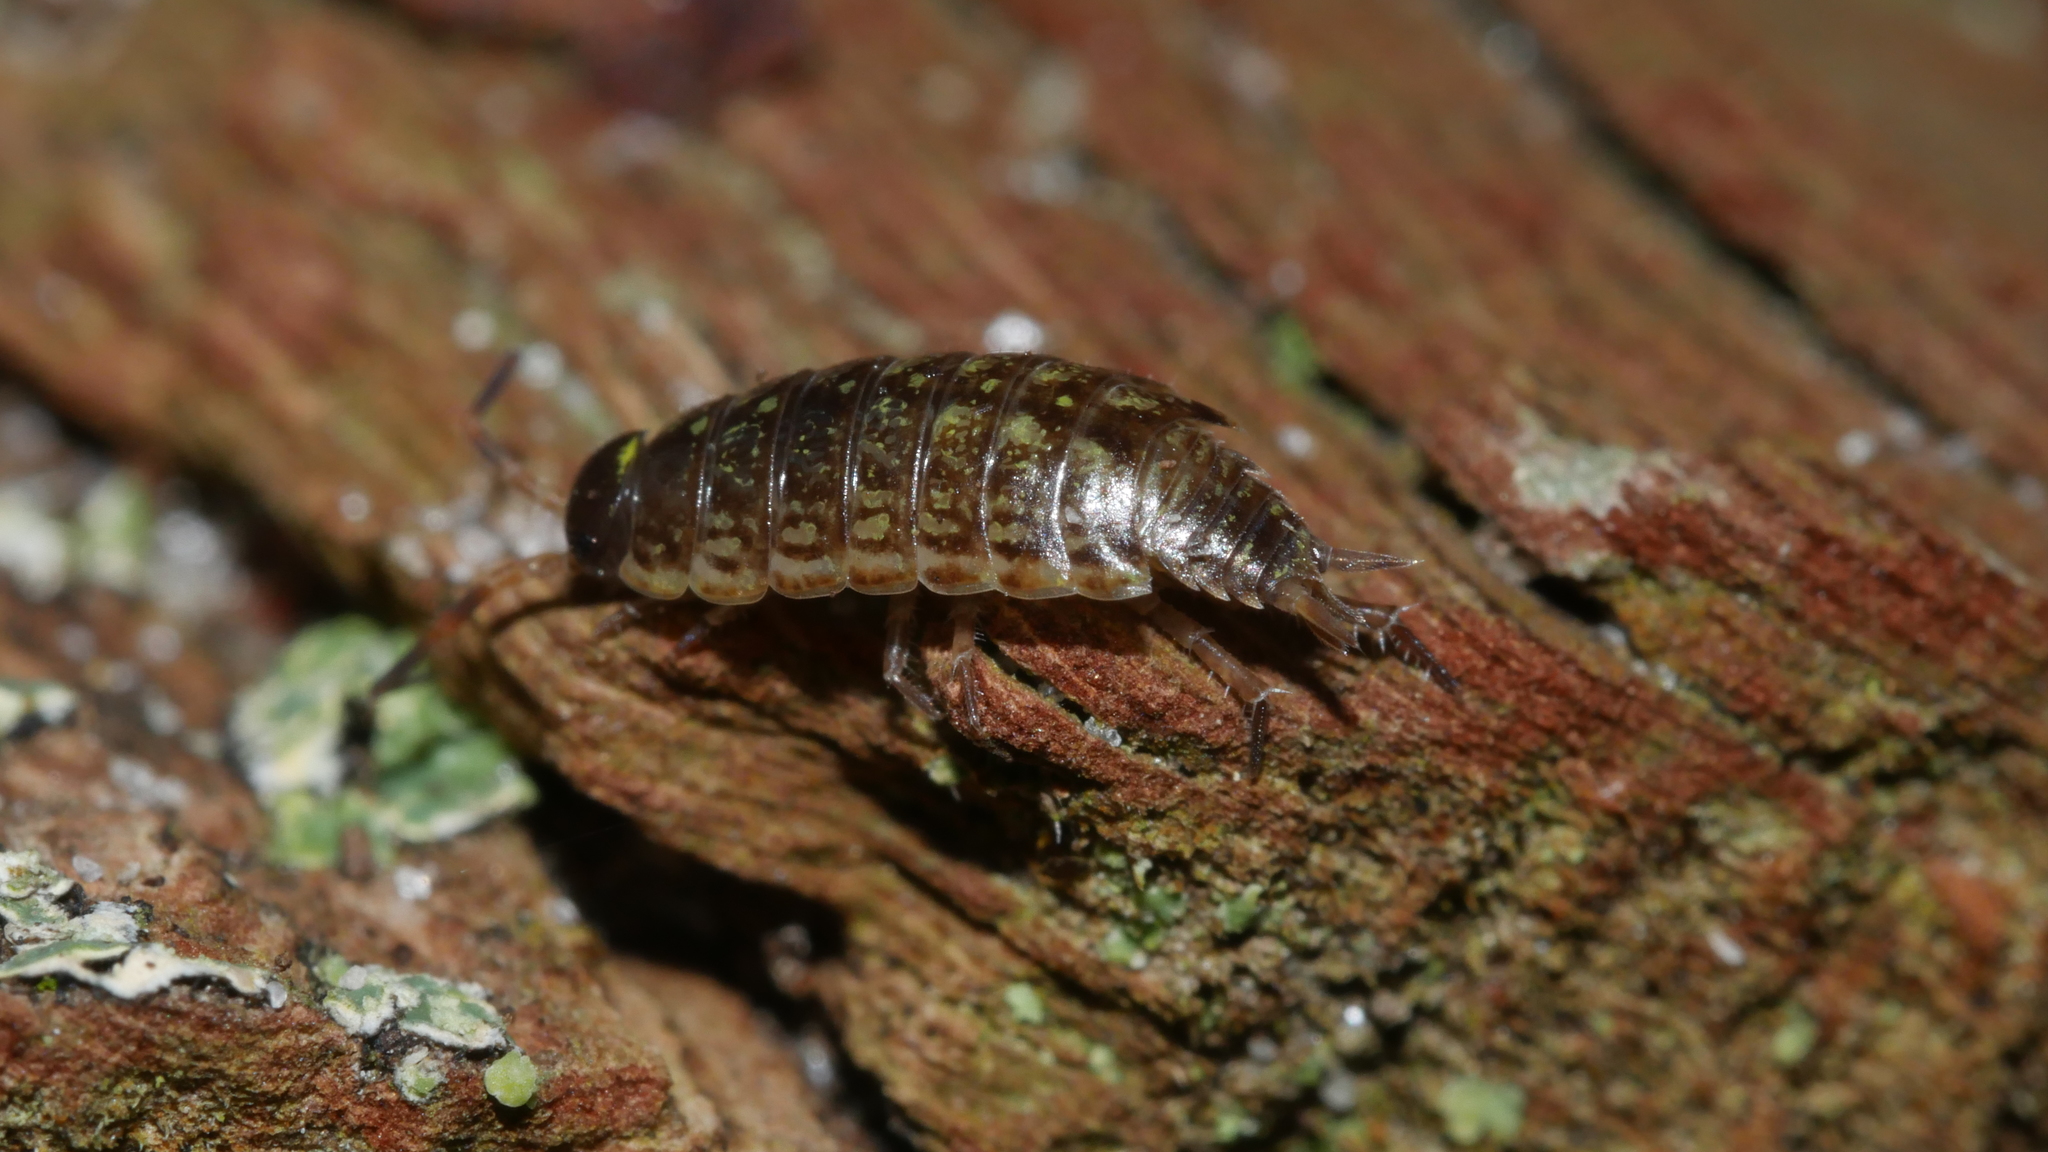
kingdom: Animalia
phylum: Arthropoda
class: Malacostraca
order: Isopoda
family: Philosciidae
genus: Philoscia
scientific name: Philoscia muscorum
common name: Common striped woodlouse
